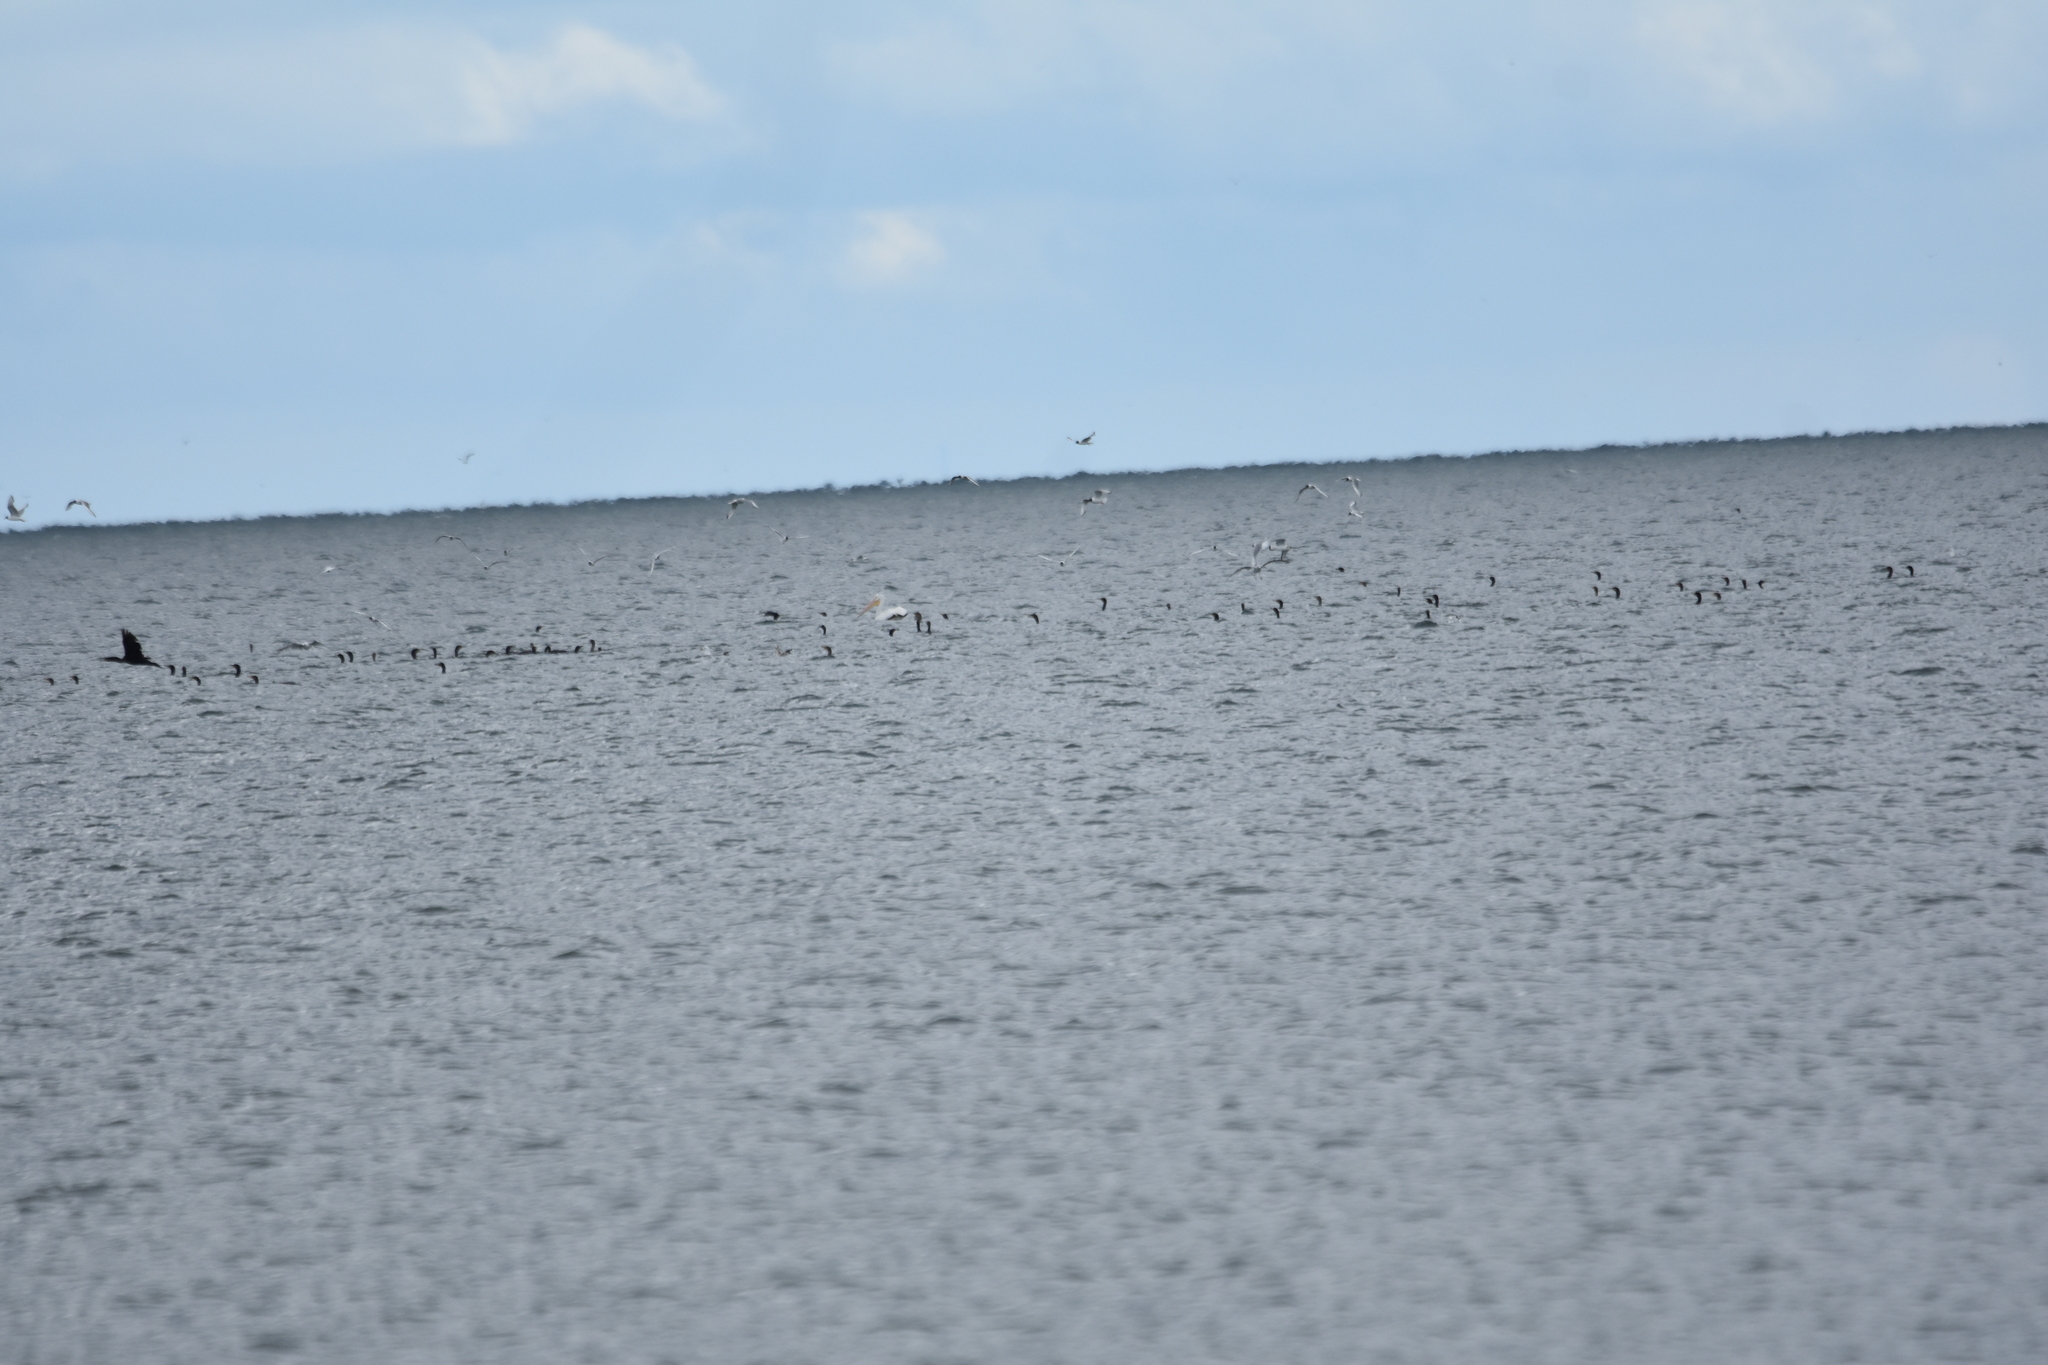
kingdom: Animalia
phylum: Chordata
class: Aves
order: Pelecaniformes
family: Pelecanidae
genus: Pelecanus
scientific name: Pelecanus erythrorhynchos
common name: American white pelican
